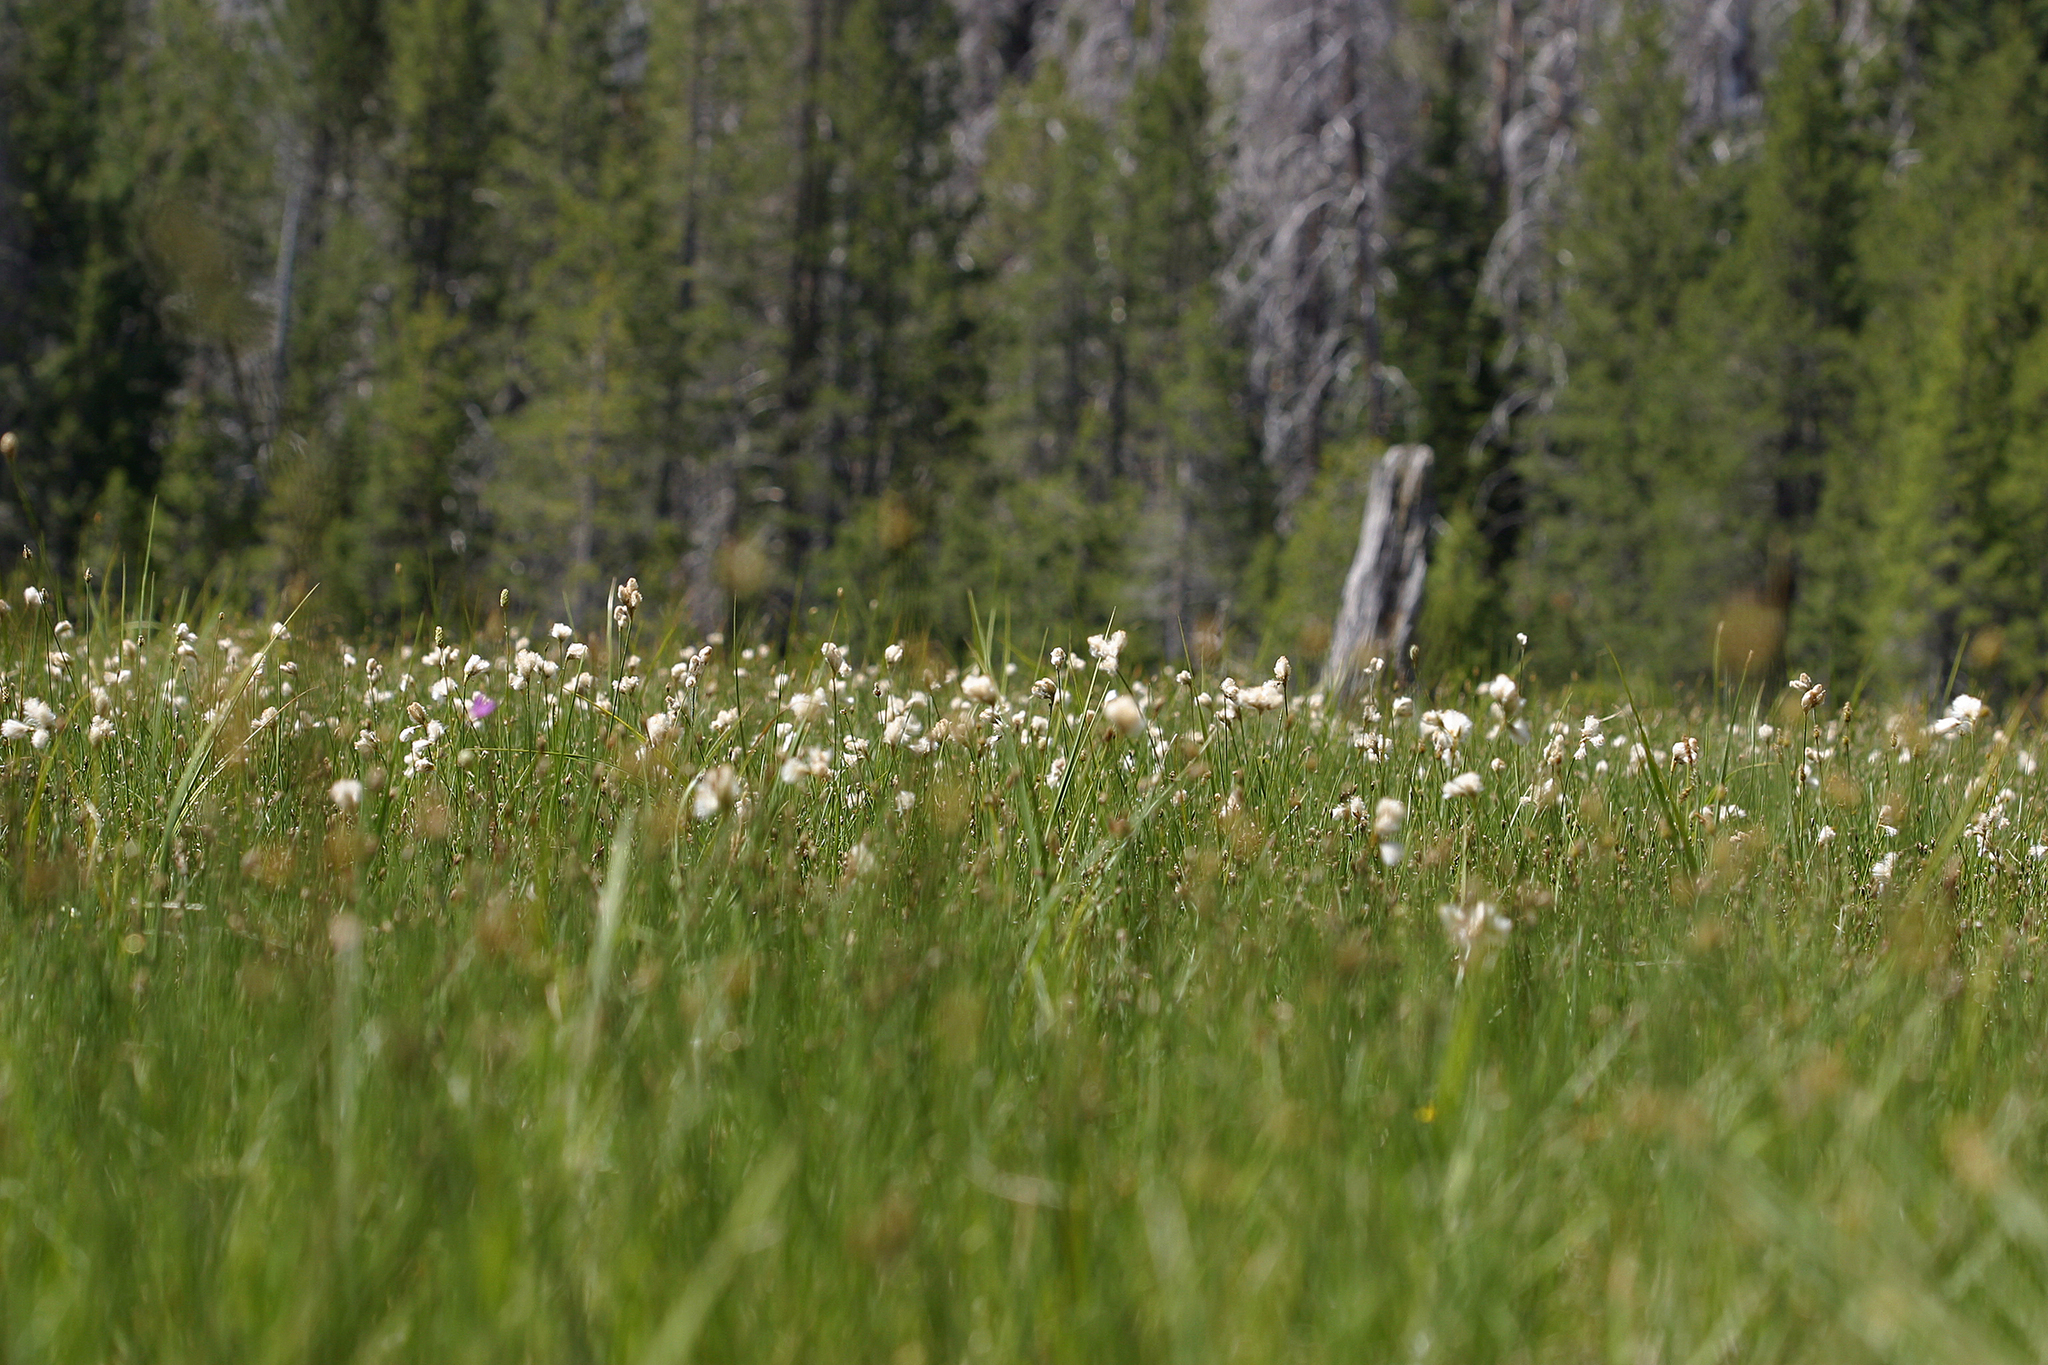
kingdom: Plantae
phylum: Tracheophyta
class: Liliopsida
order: Poales
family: Cyperaceae
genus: Eriophorum
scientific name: Eriophorum gracile
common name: Slender cottongrass
